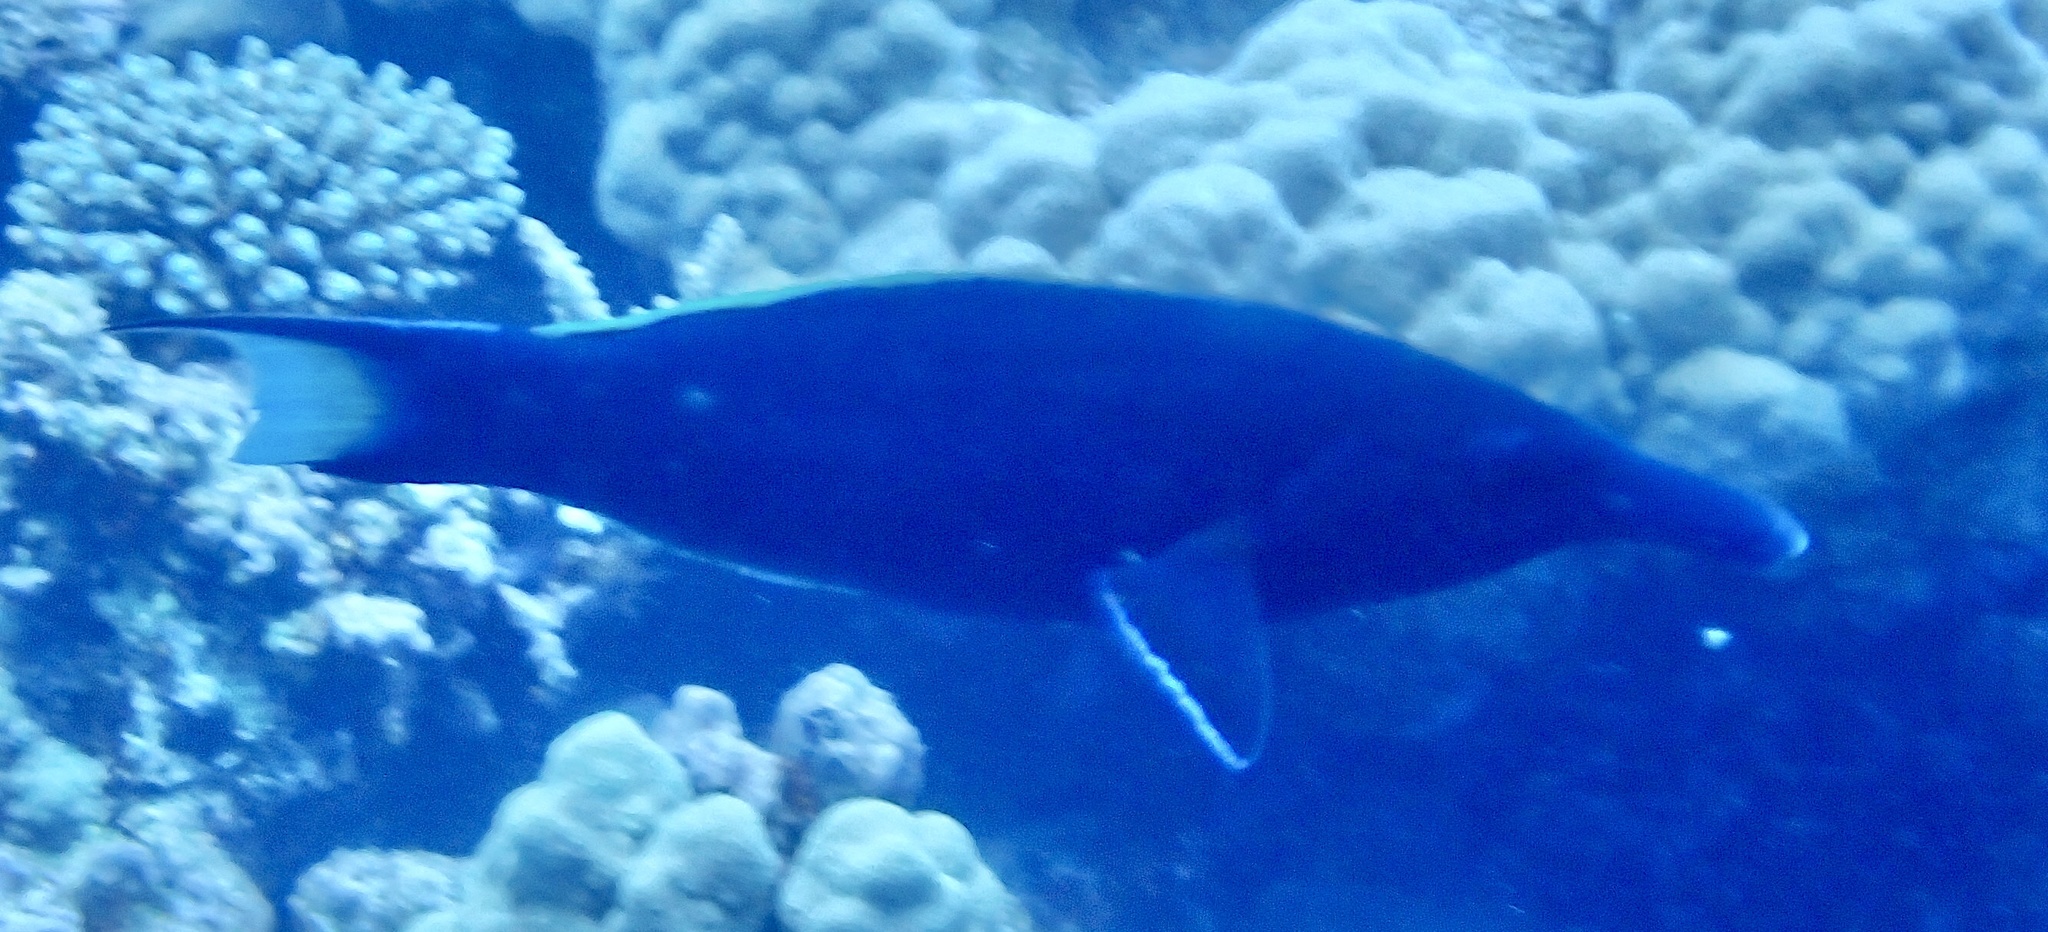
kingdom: Animalia
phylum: Chordata
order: Perciformes
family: Labridae
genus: Gomphosus
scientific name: Gomphosus klunzingeri
